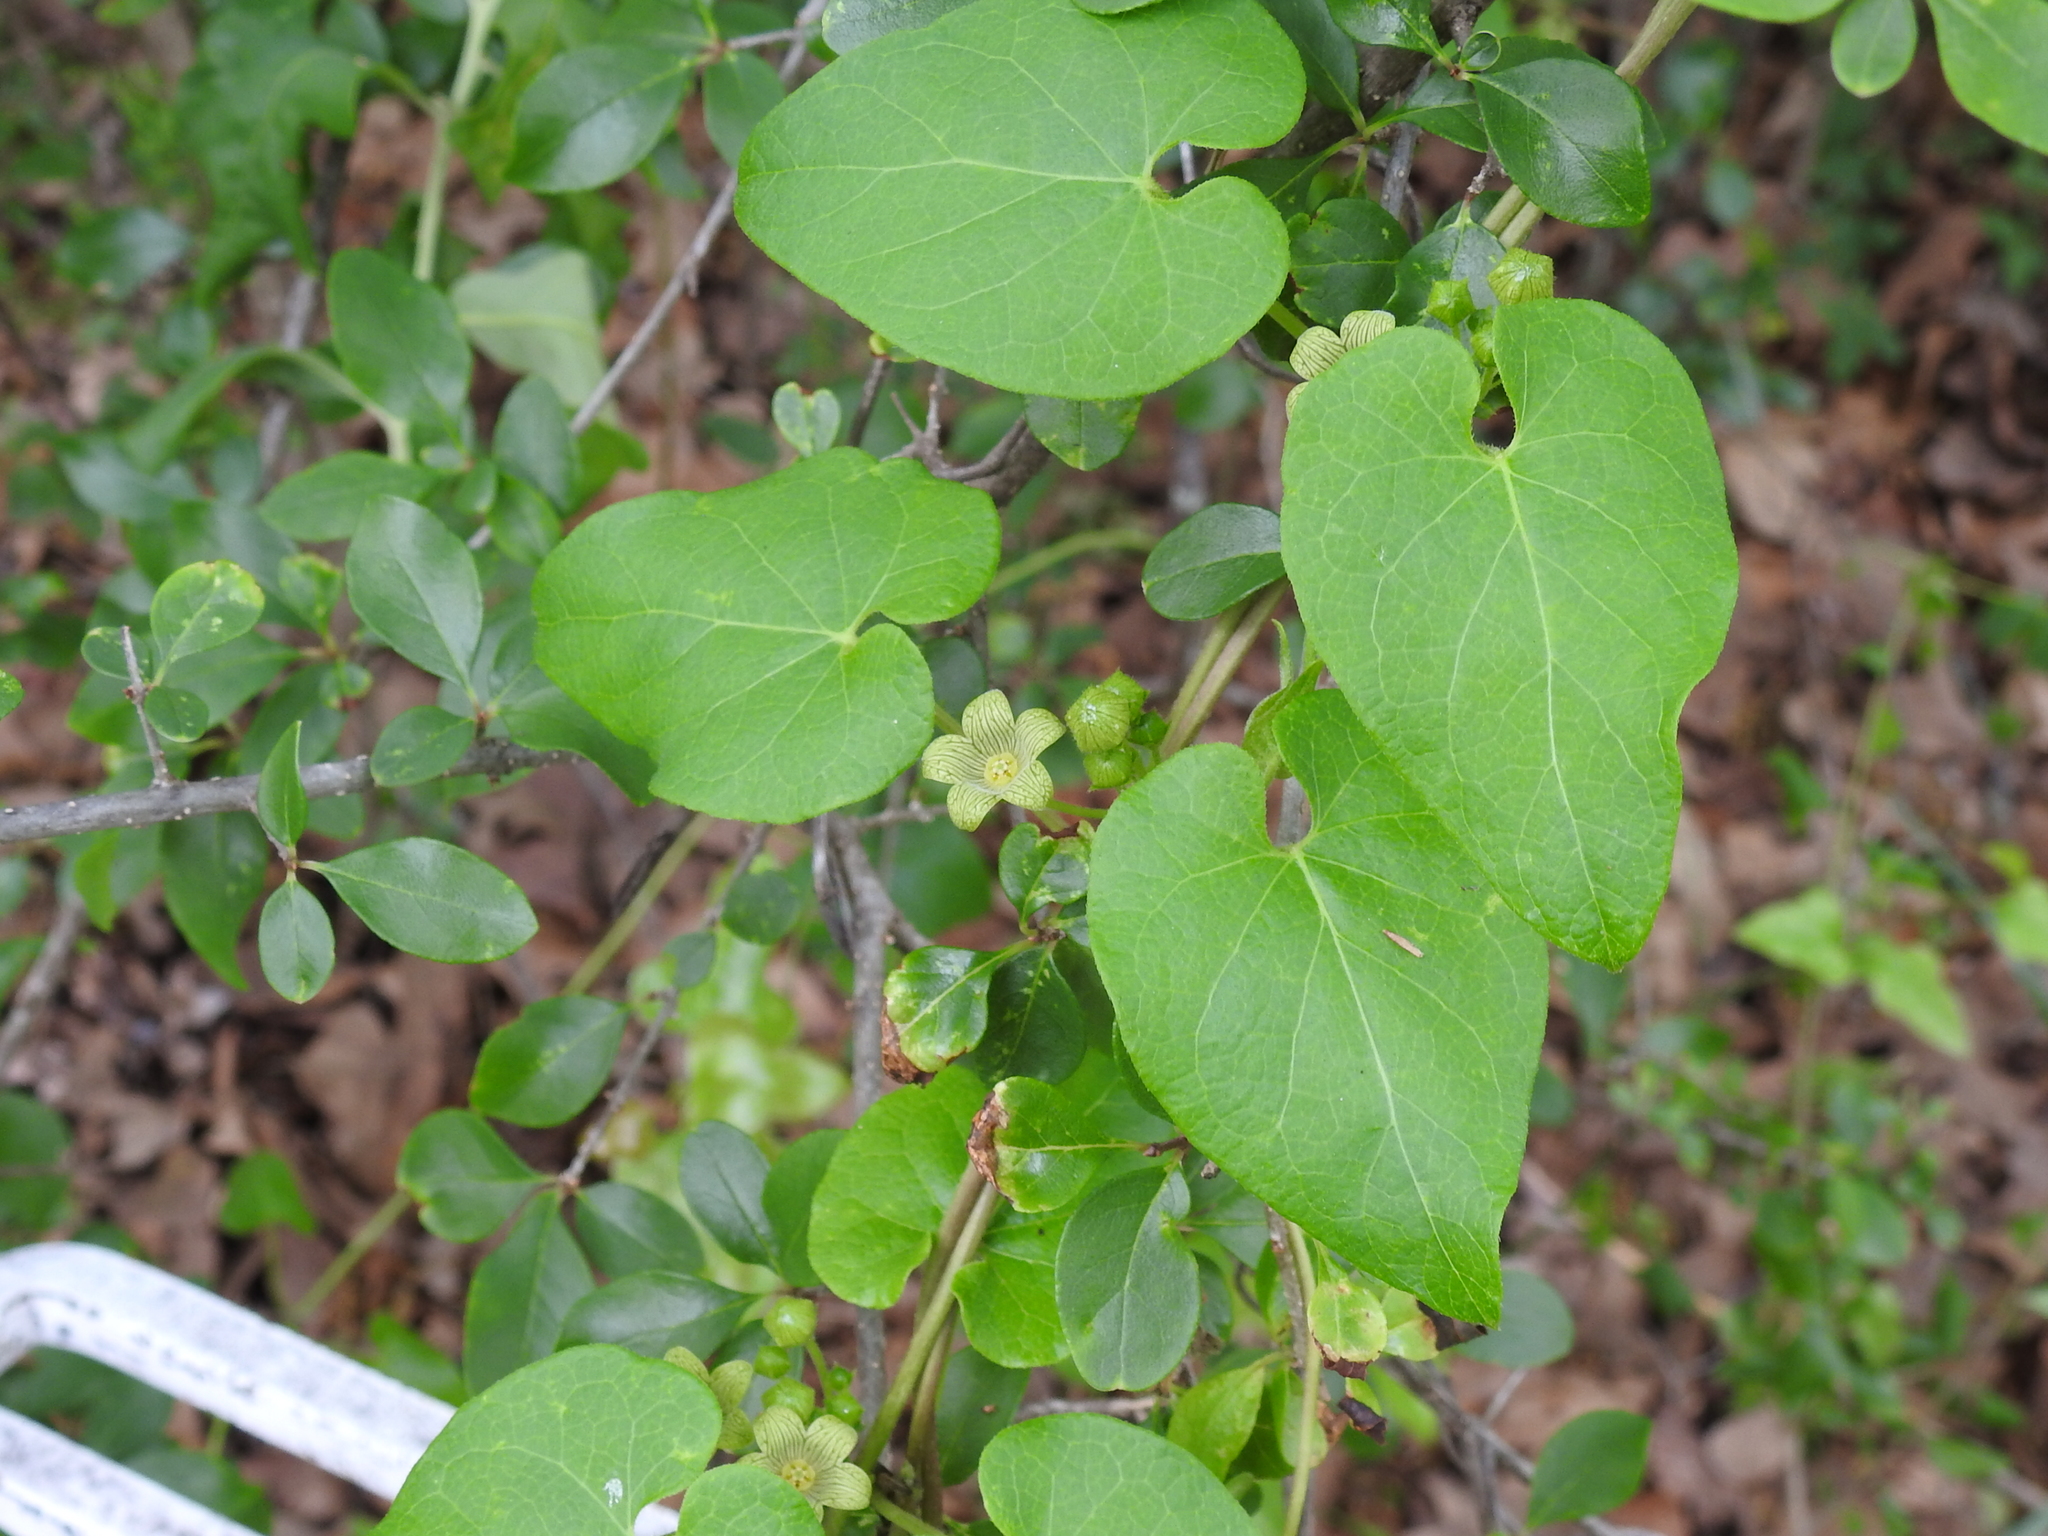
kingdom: Plantae
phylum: Tracheophyta
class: Magnoliopsida
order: Gentianales
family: Apocynaceae
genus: Matelea
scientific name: Matelea edwardsensis
